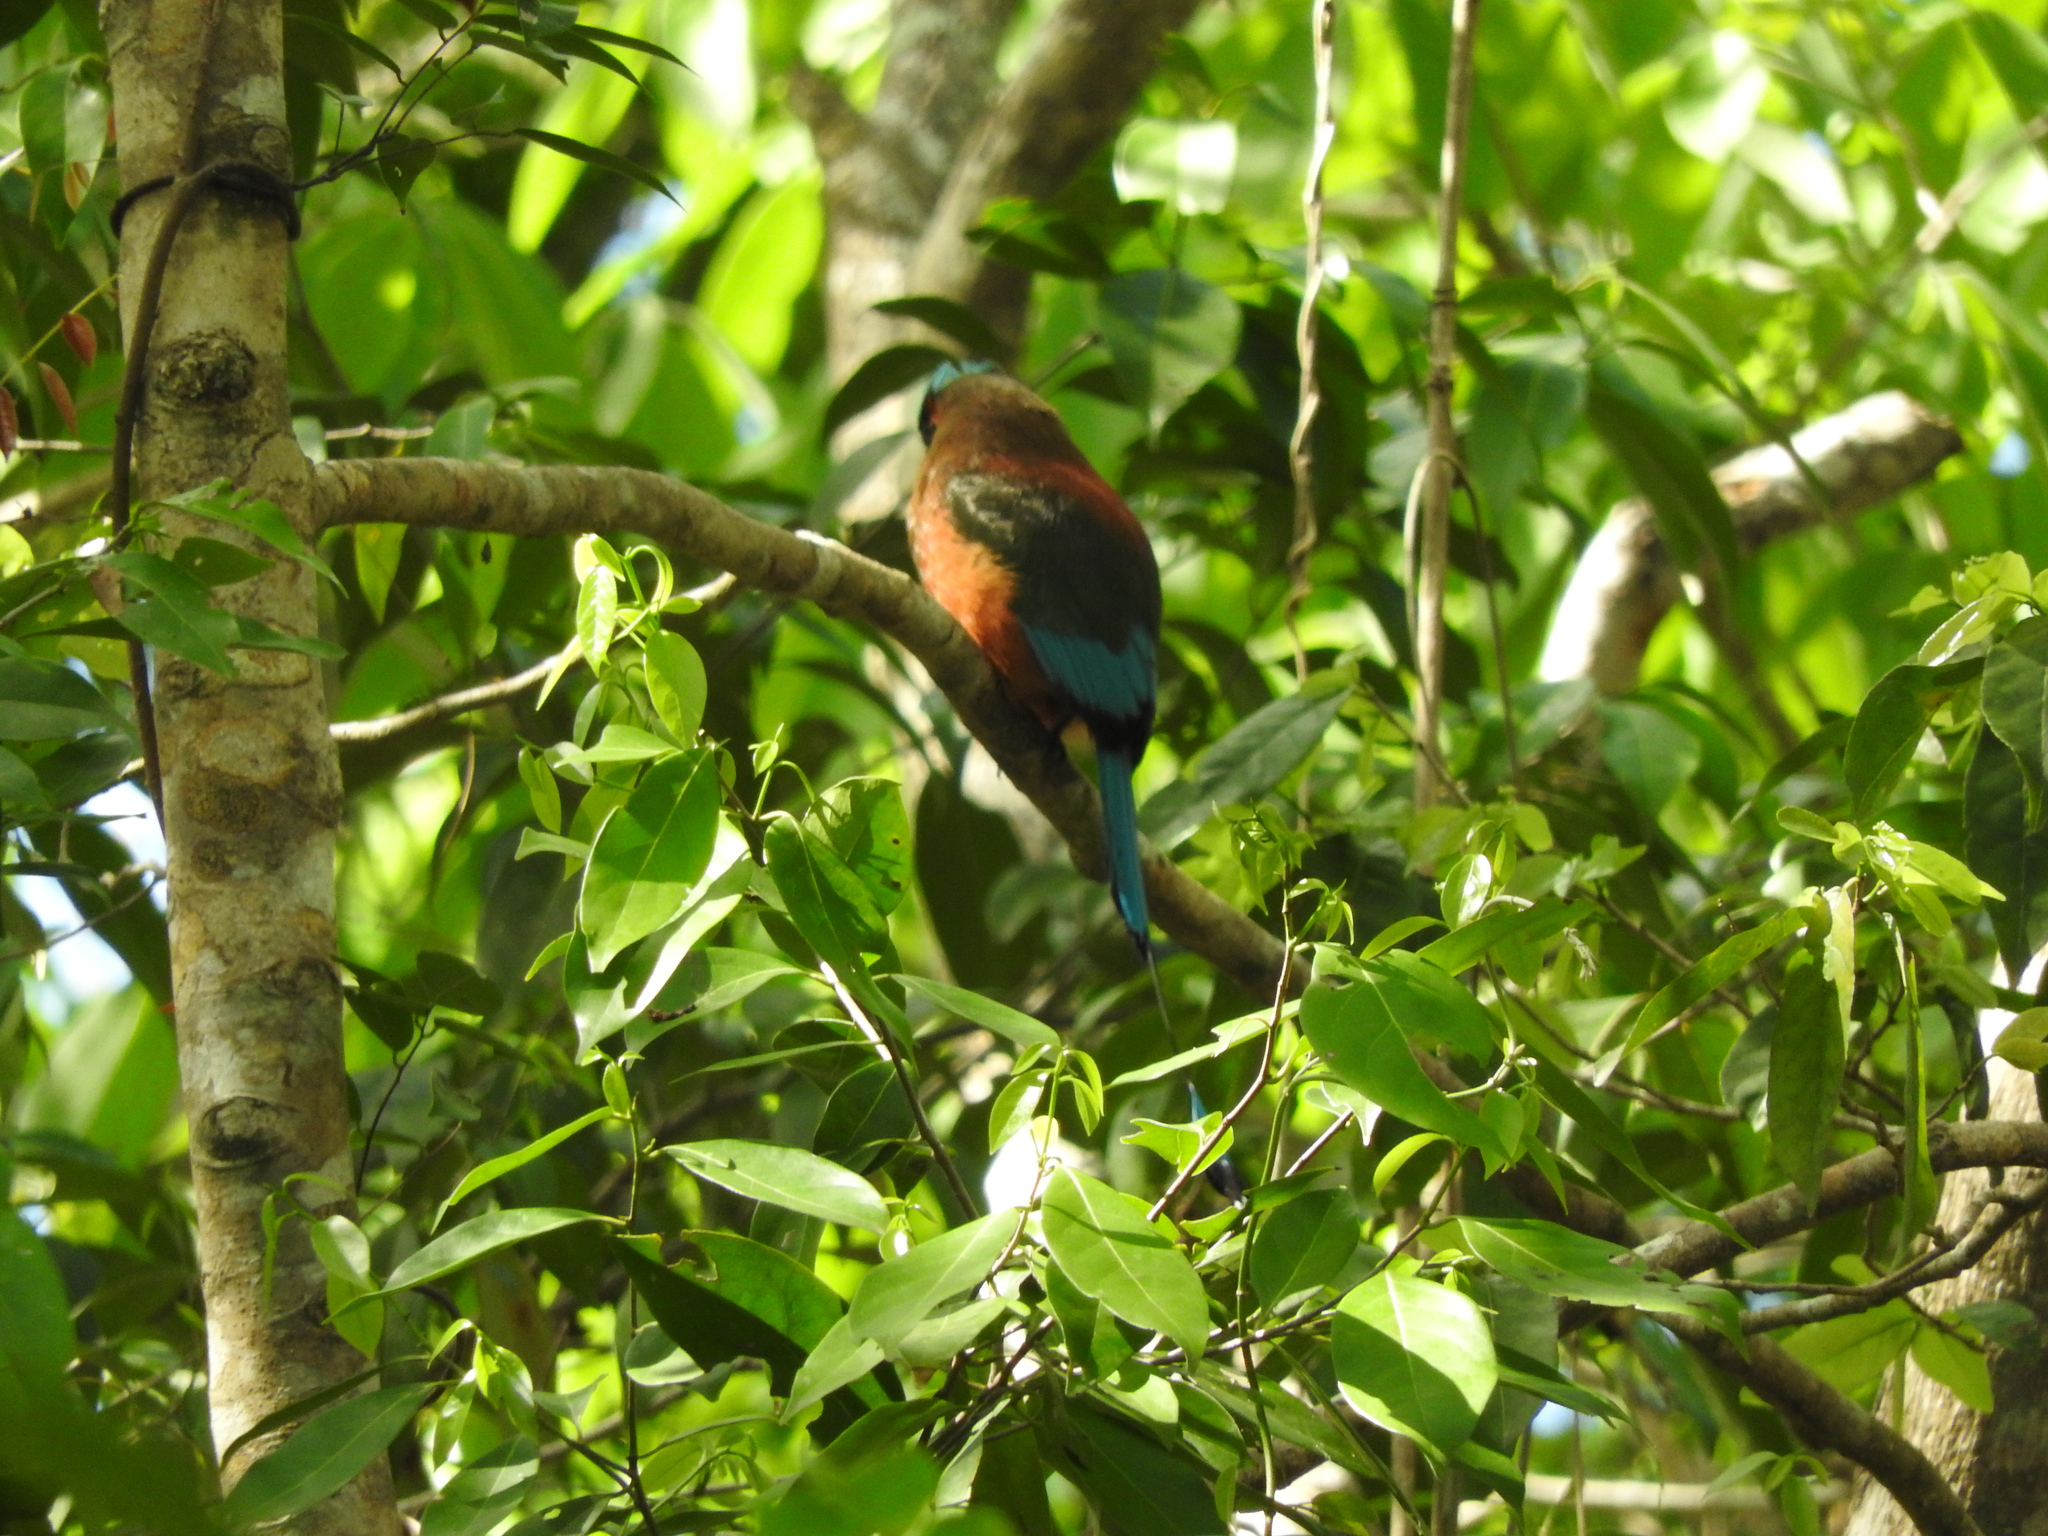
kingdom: Animalia
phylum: Chordata
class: Aves
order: Coraciiformes
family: Momotidae
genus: Eumomota
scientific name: Eumomota superciliosa
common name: Turquoise-browed motmot
